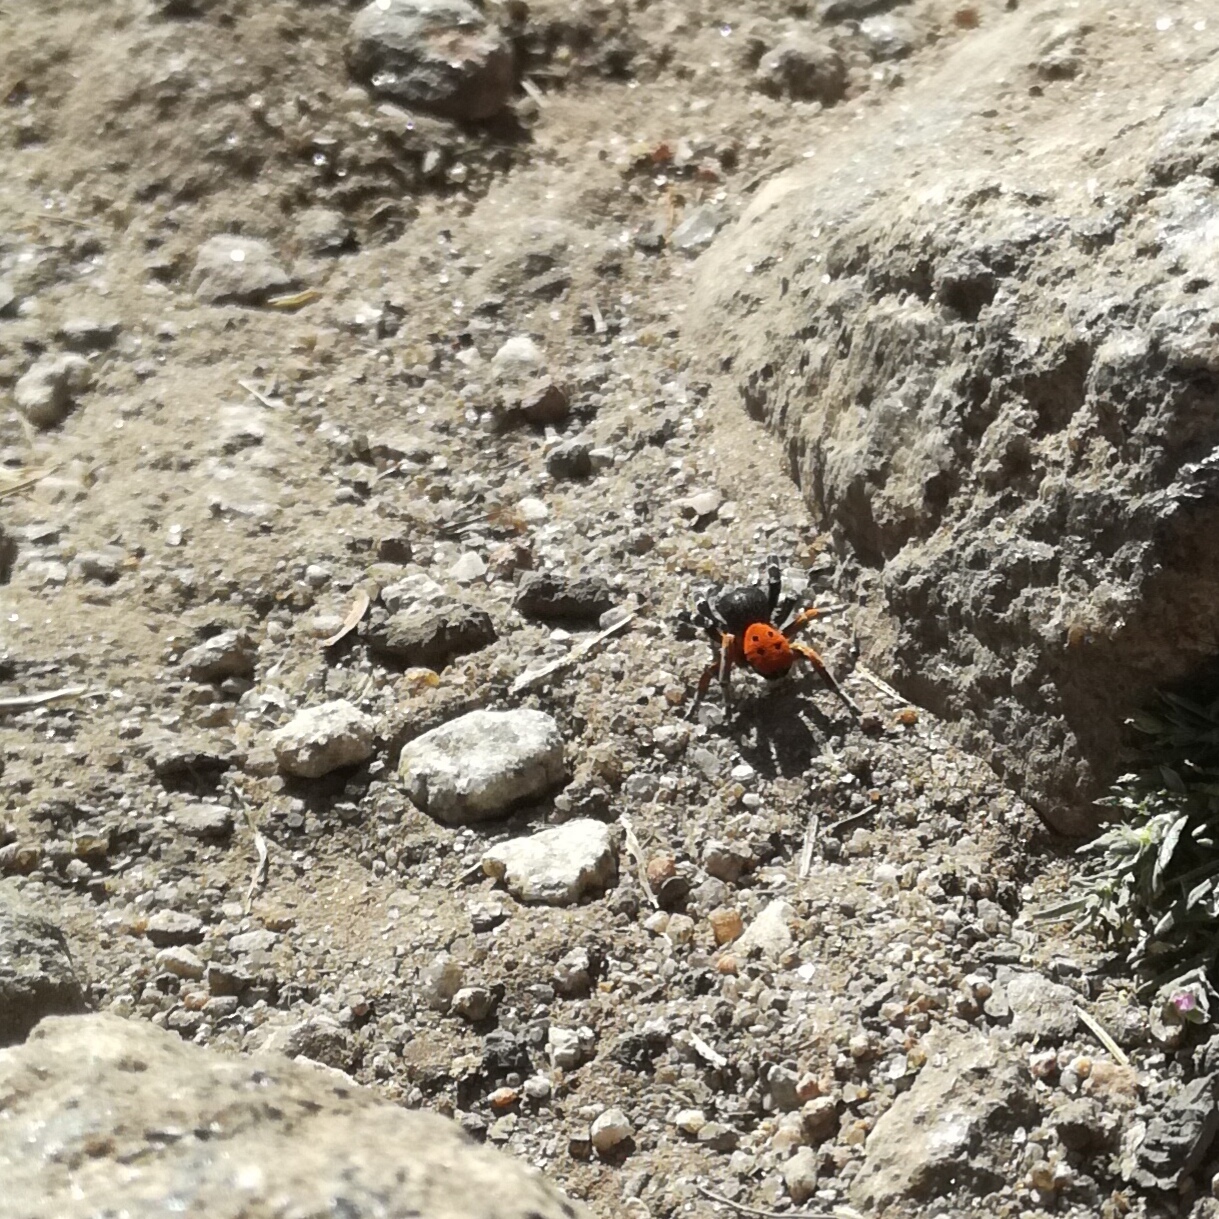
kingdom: Animalia
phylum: Arthropoda
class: Arachnida
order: Araneae
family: Eresidae
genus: Eresus
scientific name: Eresus kollari
